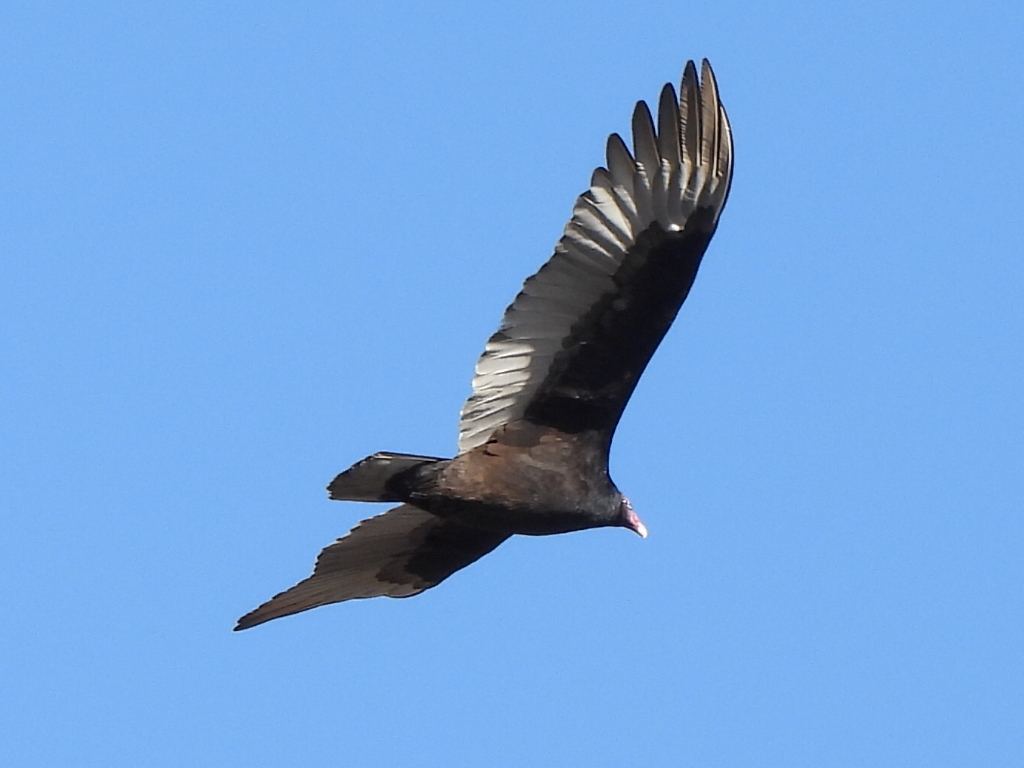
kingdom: Animalia
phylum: Chordata
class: Aves
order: Accipitriformes
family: Cathartidae
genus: Cathartes
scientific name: Cathartes aura
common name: Turkey vulture
